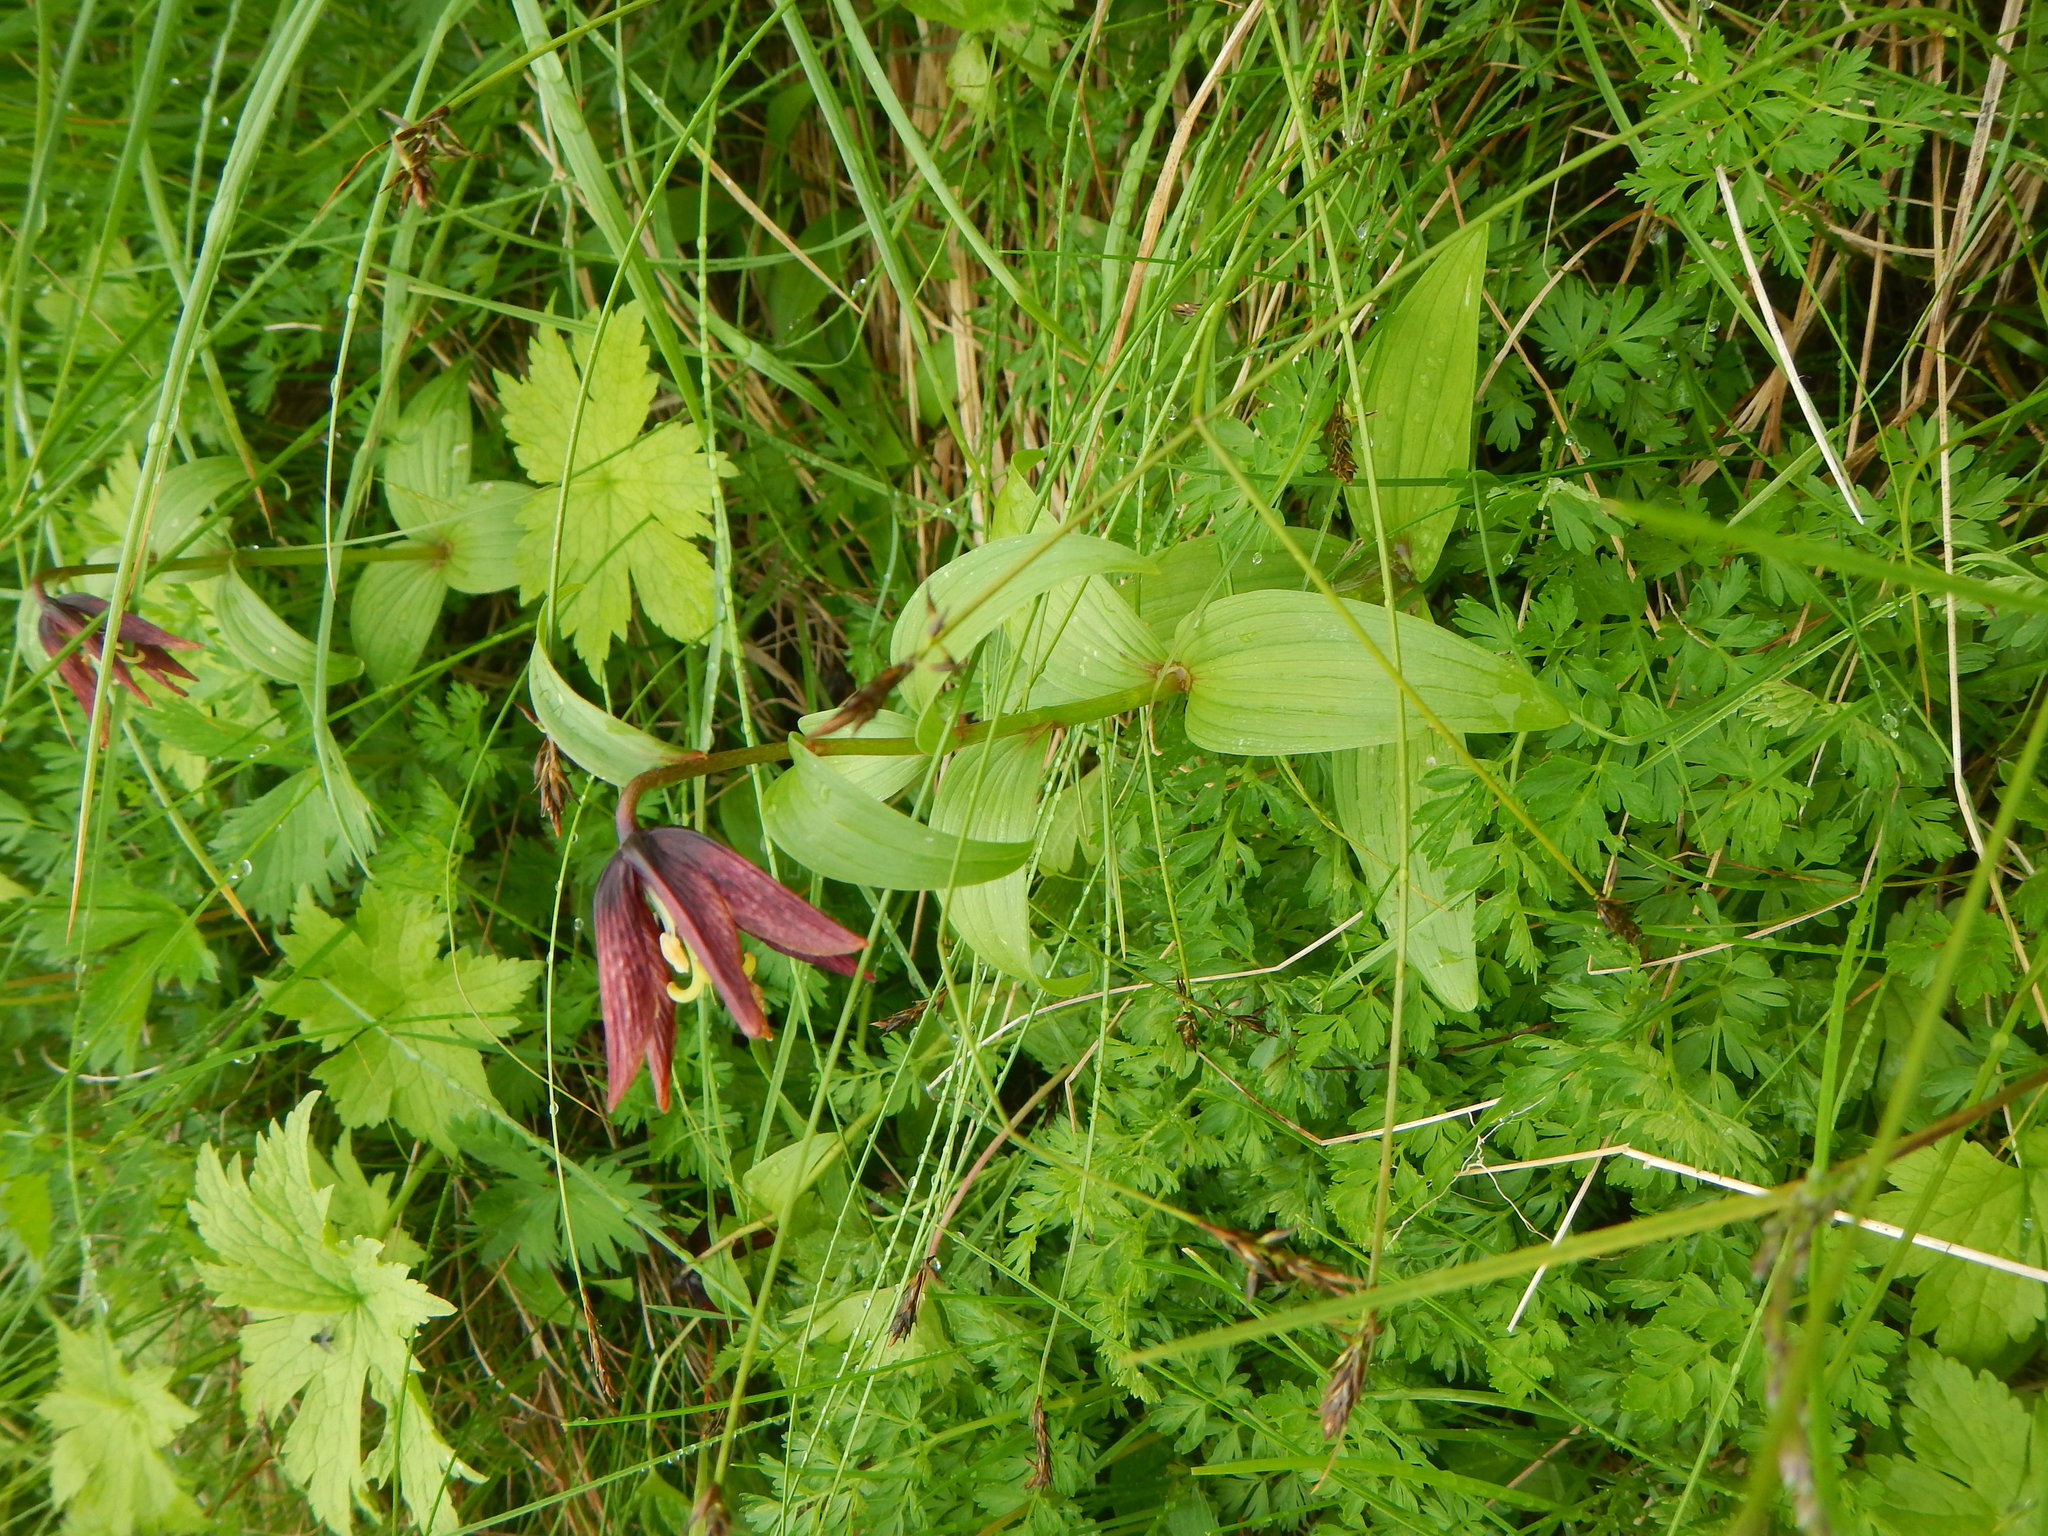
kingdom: Plantae
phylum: Tracheophyta
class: Liliopsida
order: Liliales
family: Liliaceae
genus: Fritillaria
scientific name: Fritillaria camschatcensis
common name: Kamchatka fritillary
